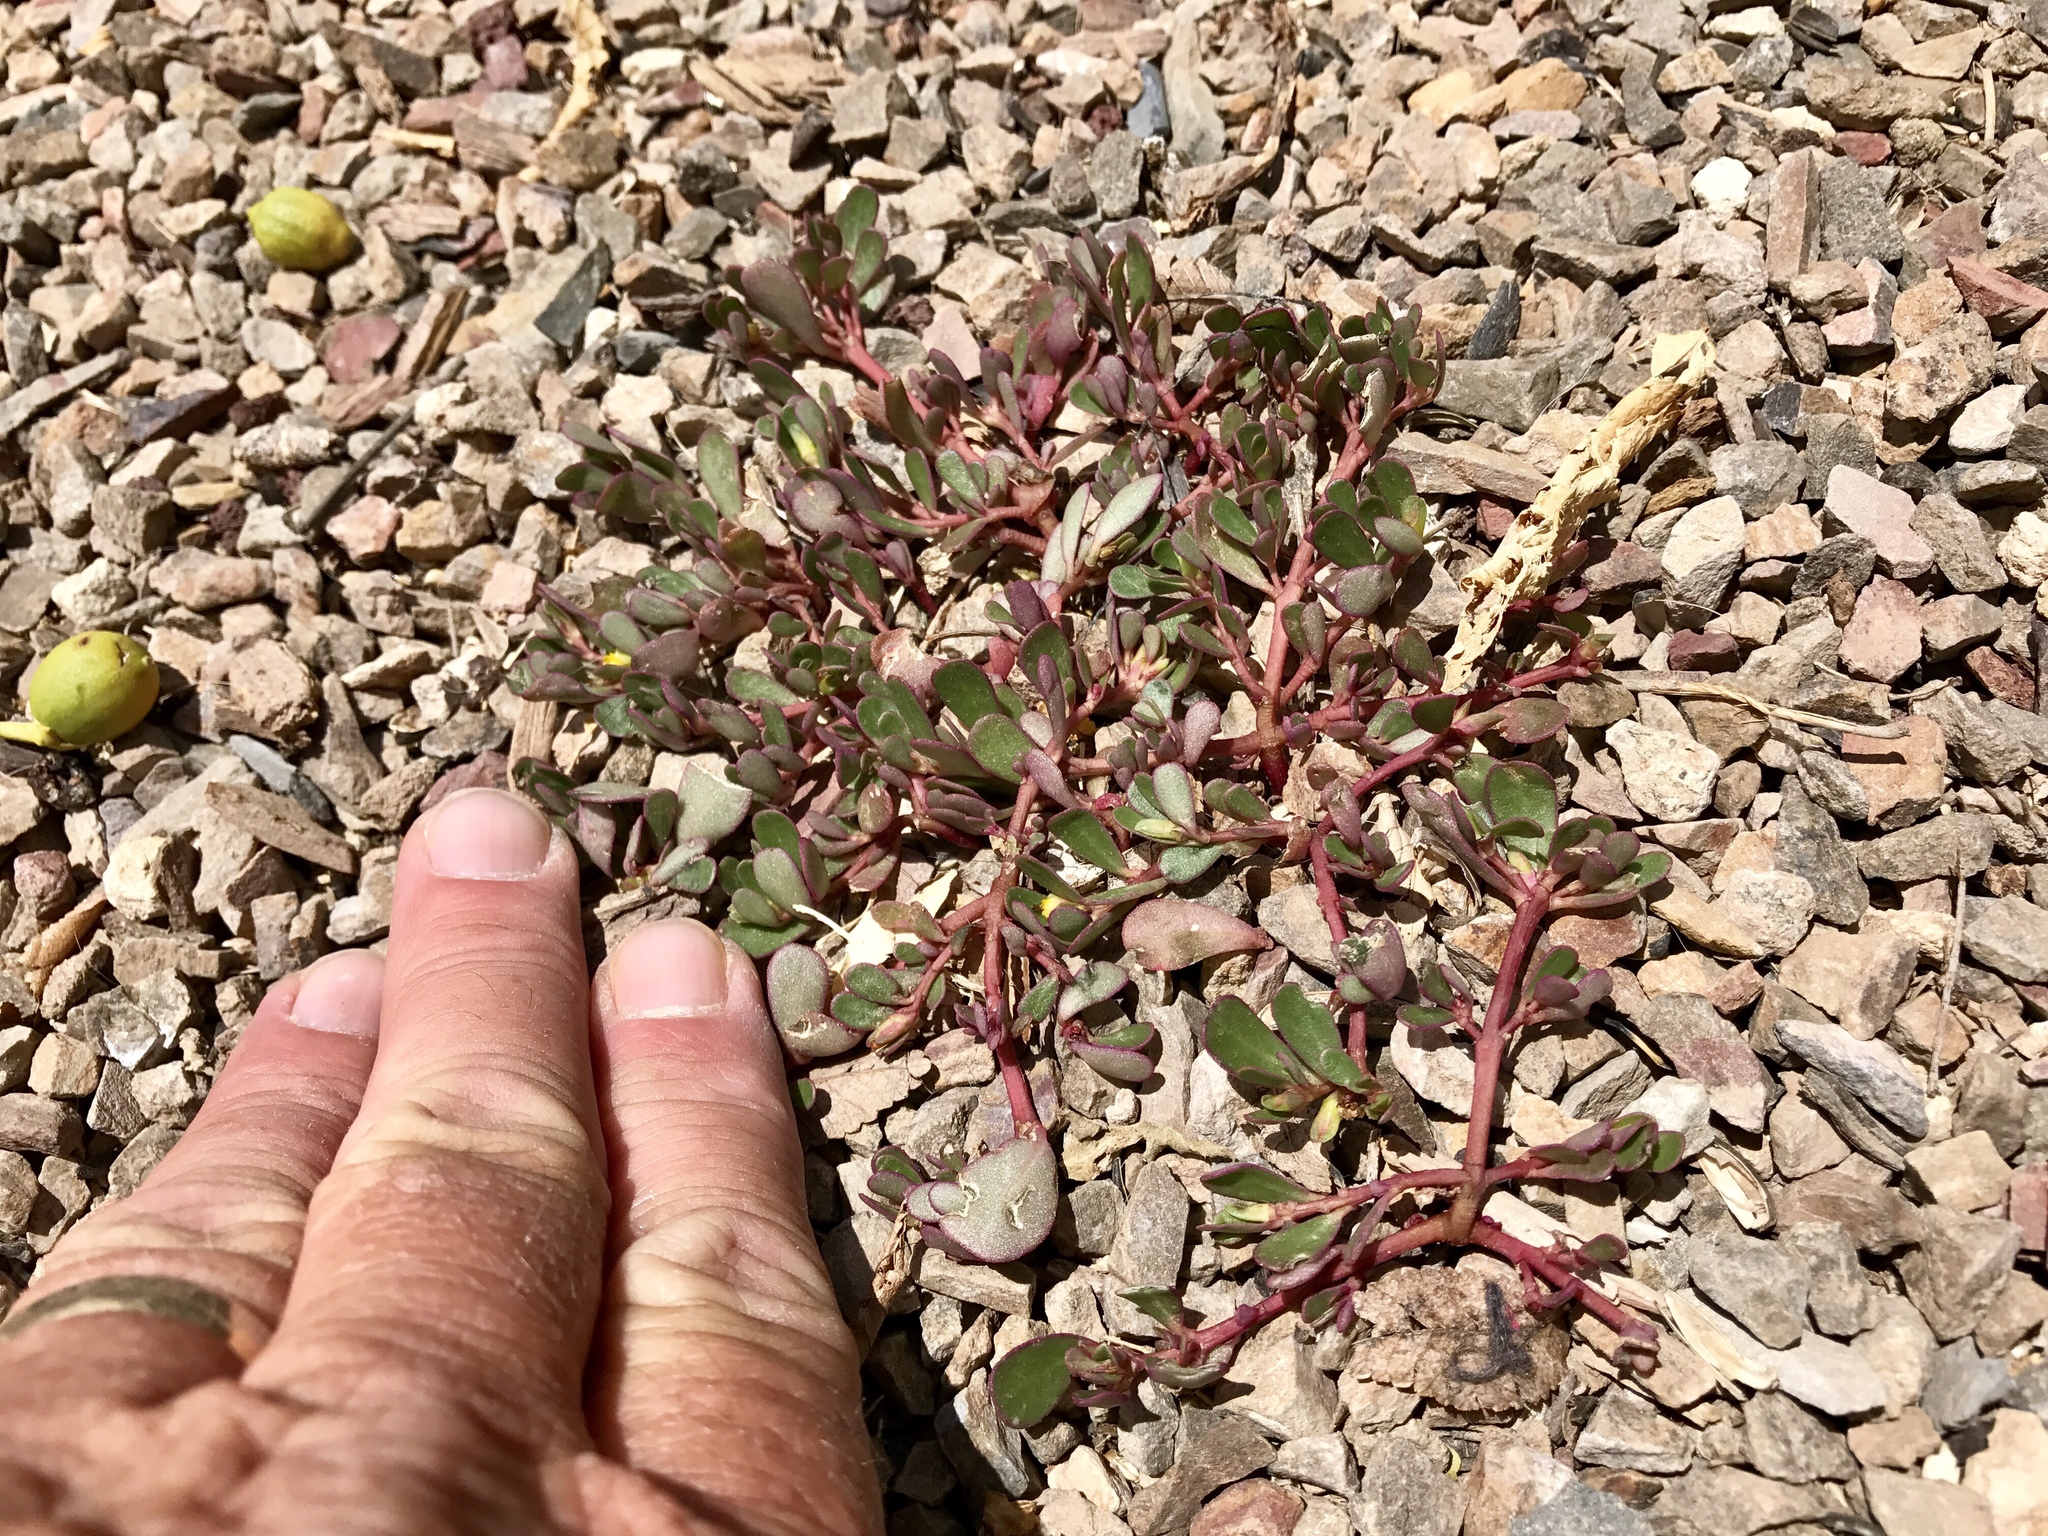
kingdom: Plantae
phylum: Tracheophyta
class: Magnoliopsida
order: Caryophyllales
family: Portulacaceae
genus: Portulaca
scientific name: Portulaca oleracea
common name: Common purslane
